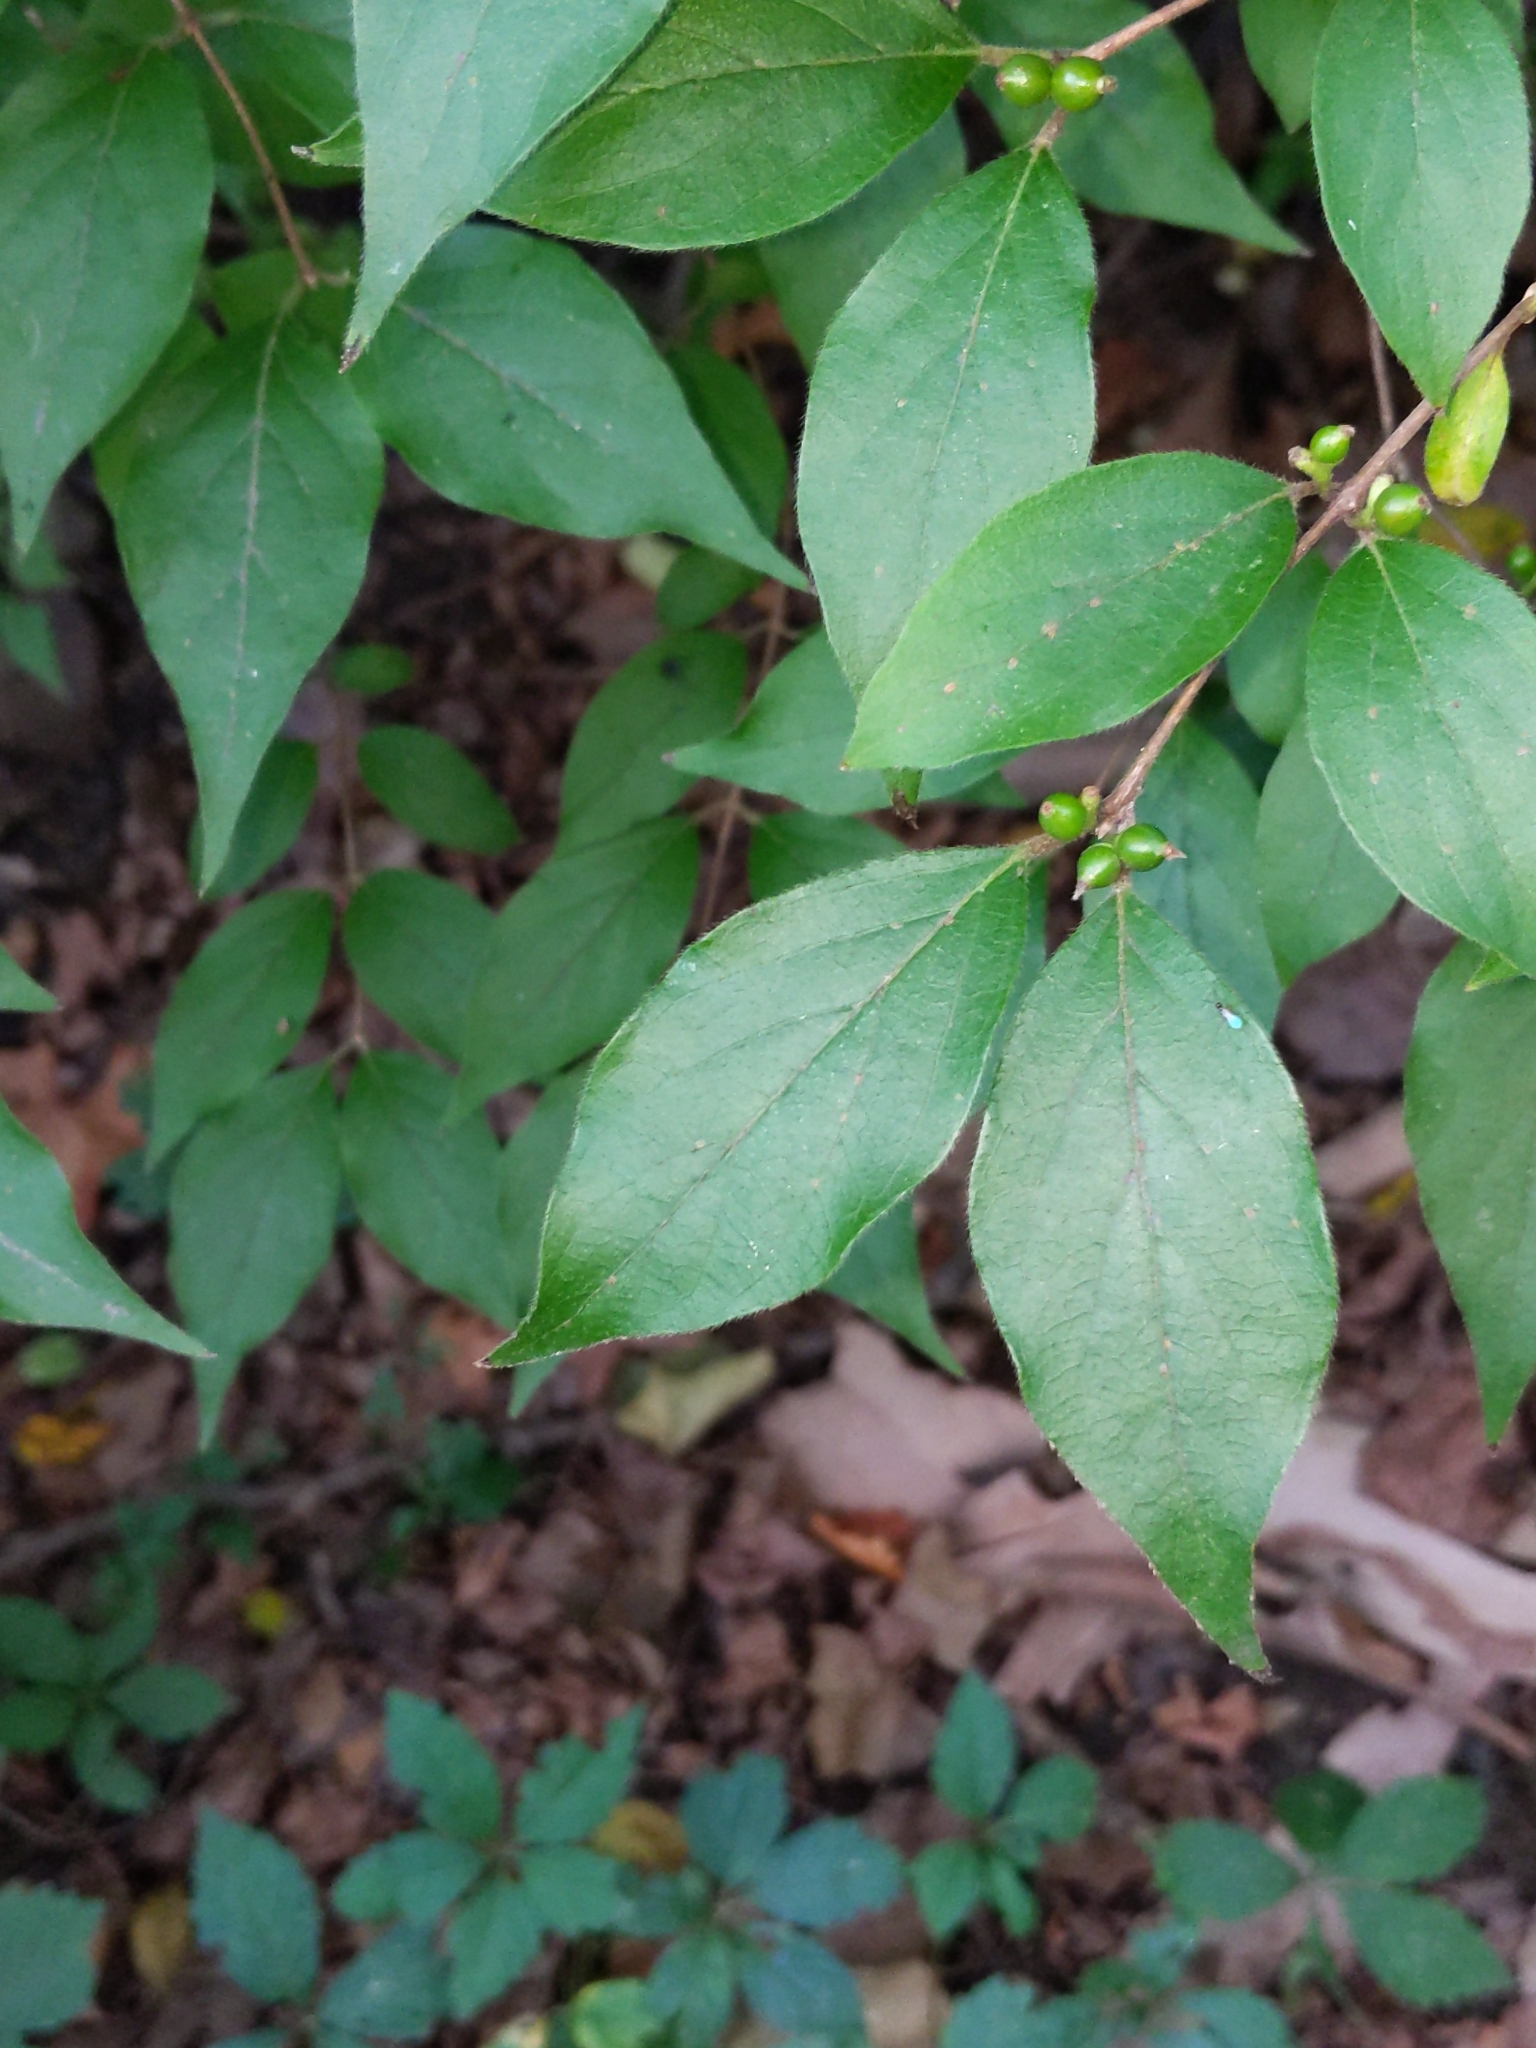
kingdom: Plantae
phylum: Tracheophyta
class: Magnoliopsida
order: Dipsacales
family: Caprifoliaceae
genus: Lonicera
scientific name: Lonicera maackii
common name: Amur honeysuckle
